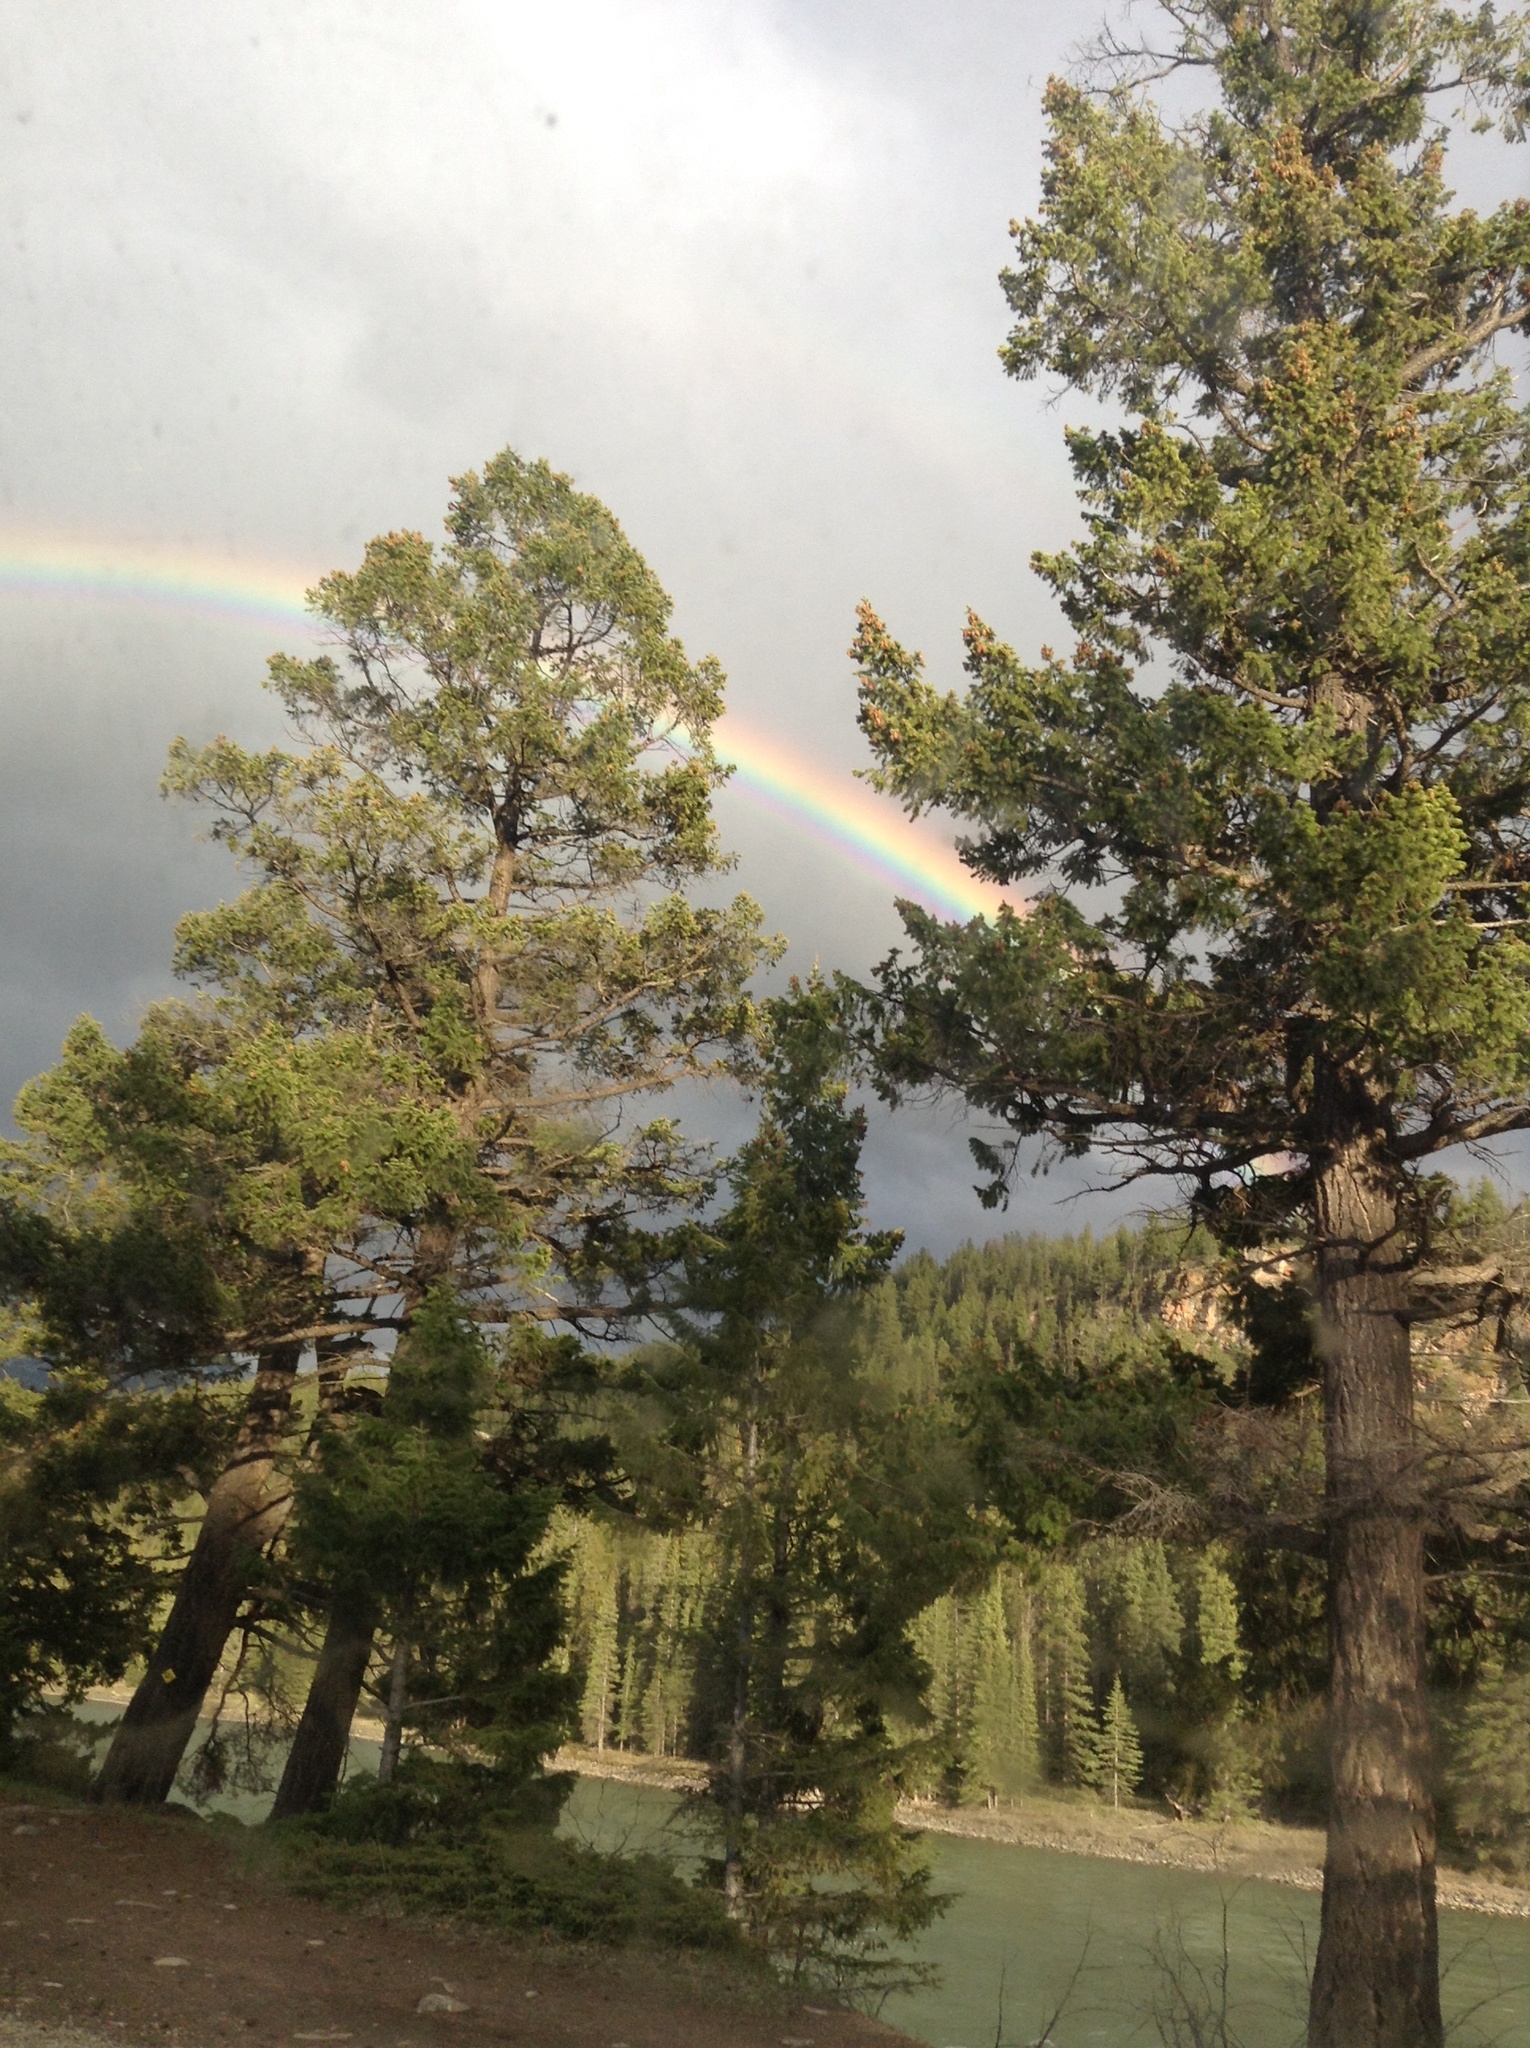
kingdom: Plantae
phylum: Tracheophyta
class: Pinopsida
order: Pinales
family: Pinaceae
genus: Pseudotsuga
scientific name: Pseudotsuga menziesii
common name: Douglas fir
